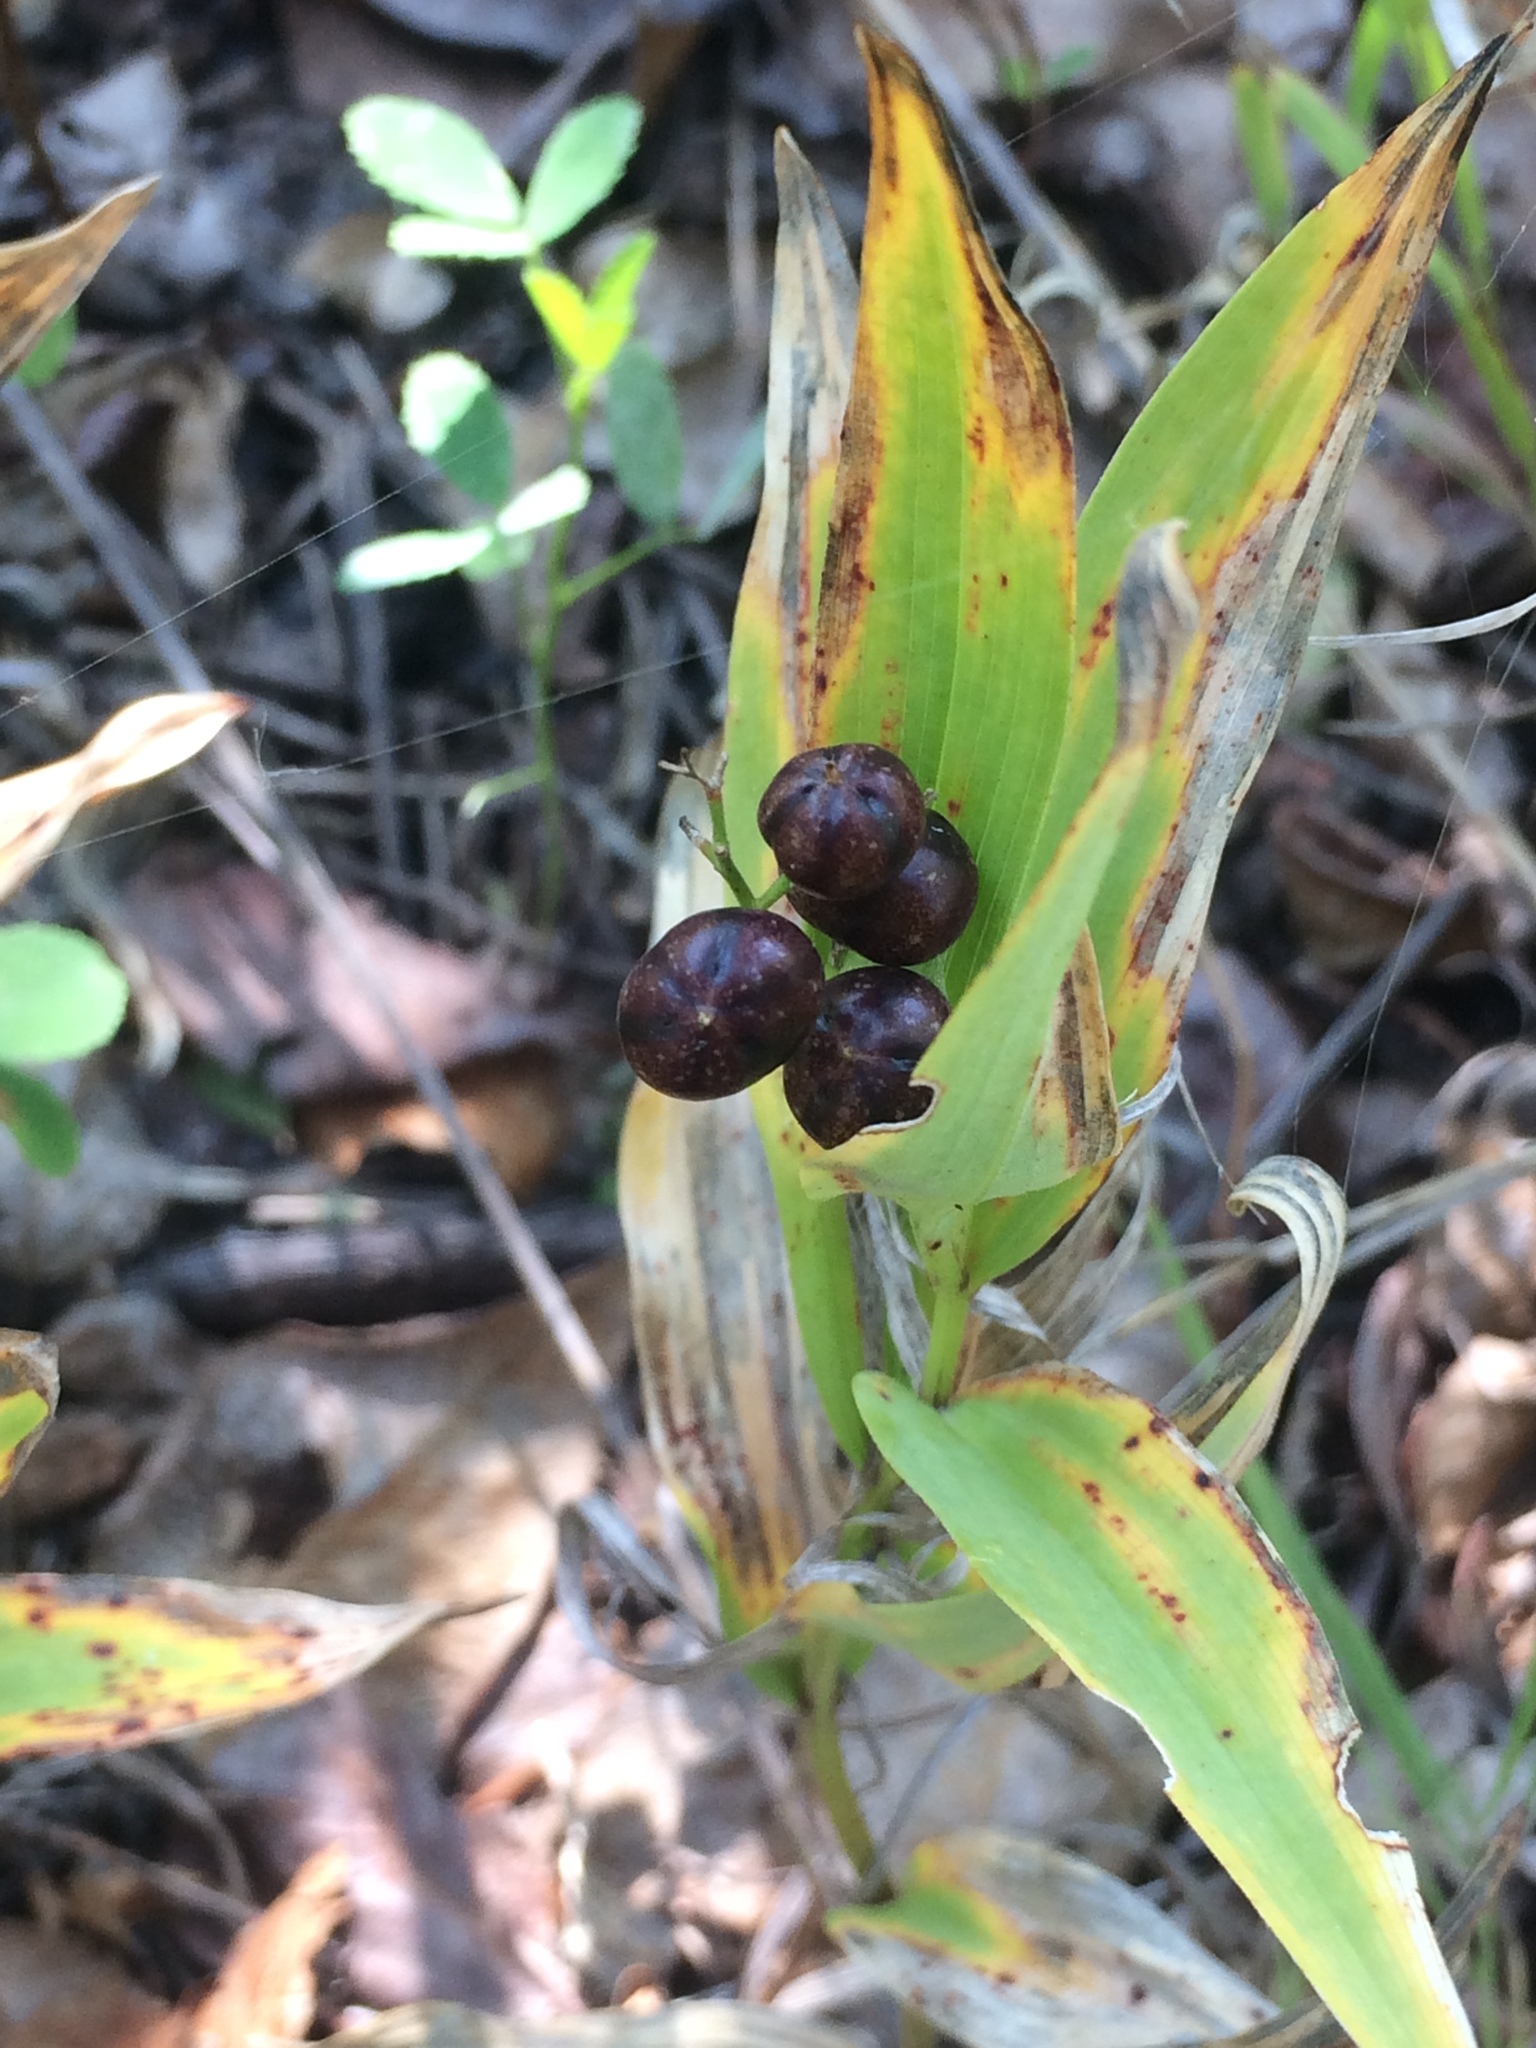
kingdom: Plantae
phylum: Tracheophyta
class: Liliopsida
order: Asparagales
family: Asparagaceae
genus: Maianthemum
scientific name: Maianthemum stellatum
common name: Little false solomon's seal
